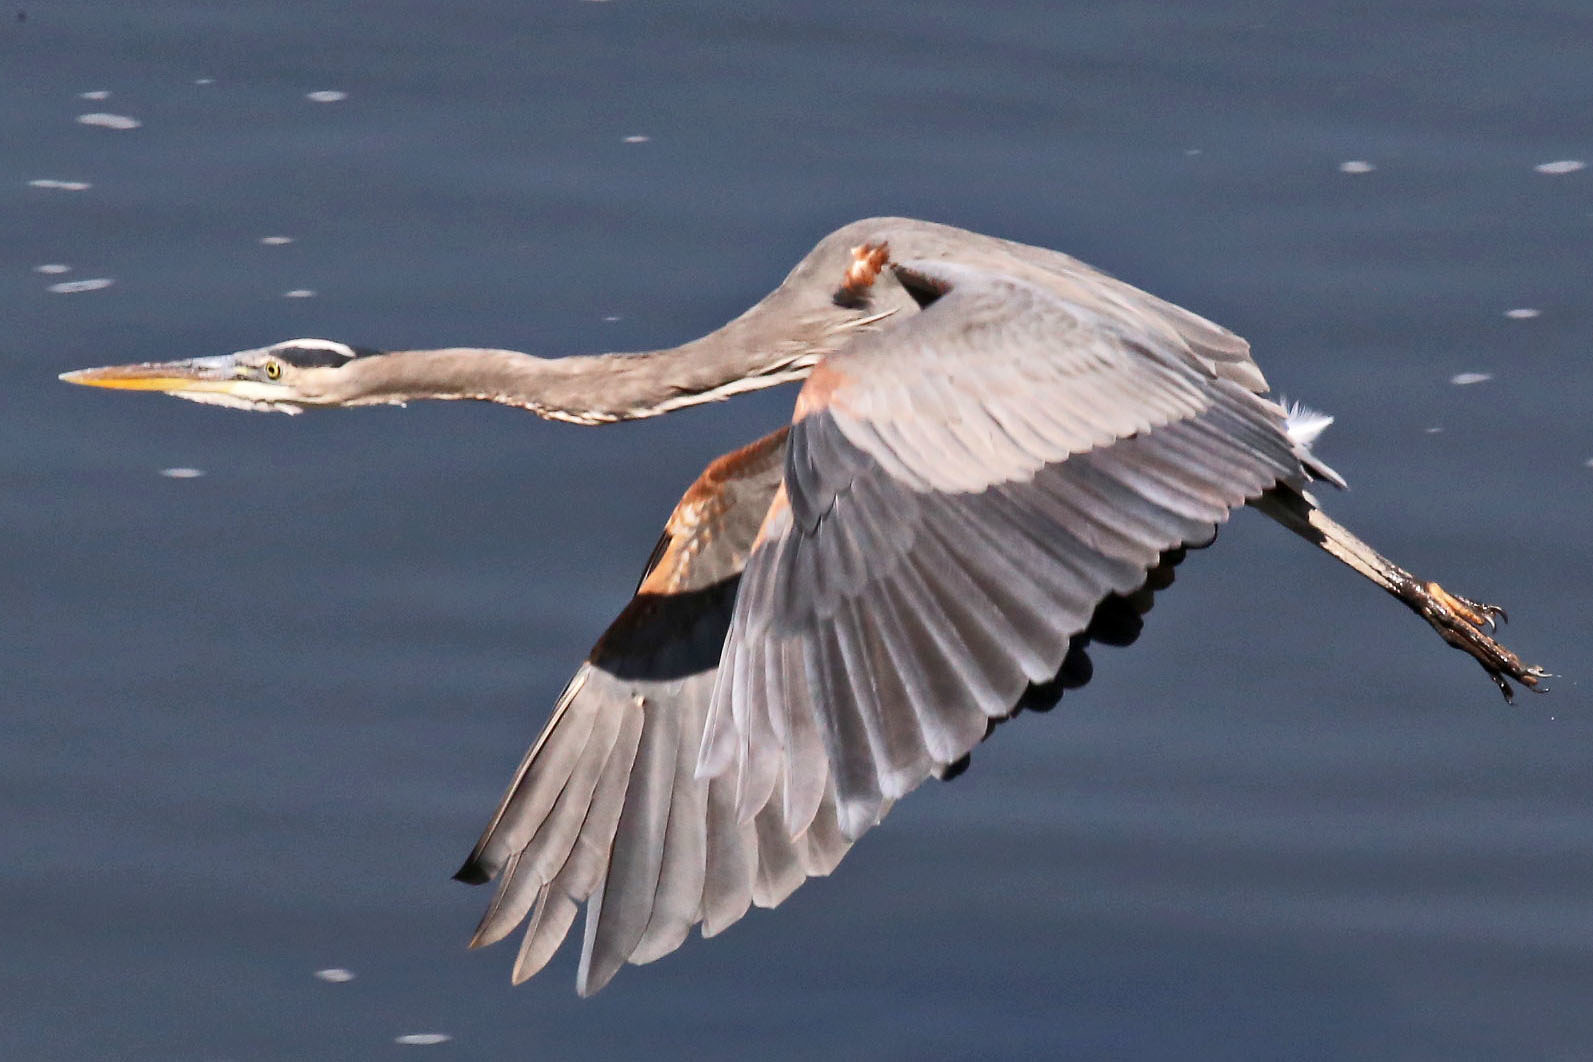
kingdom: Animalia
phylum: Chordata
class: Aves
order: Pelecaniformes
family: Ardeidae
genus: Ardea
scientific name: Ardea herodias
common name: Great blue heron
